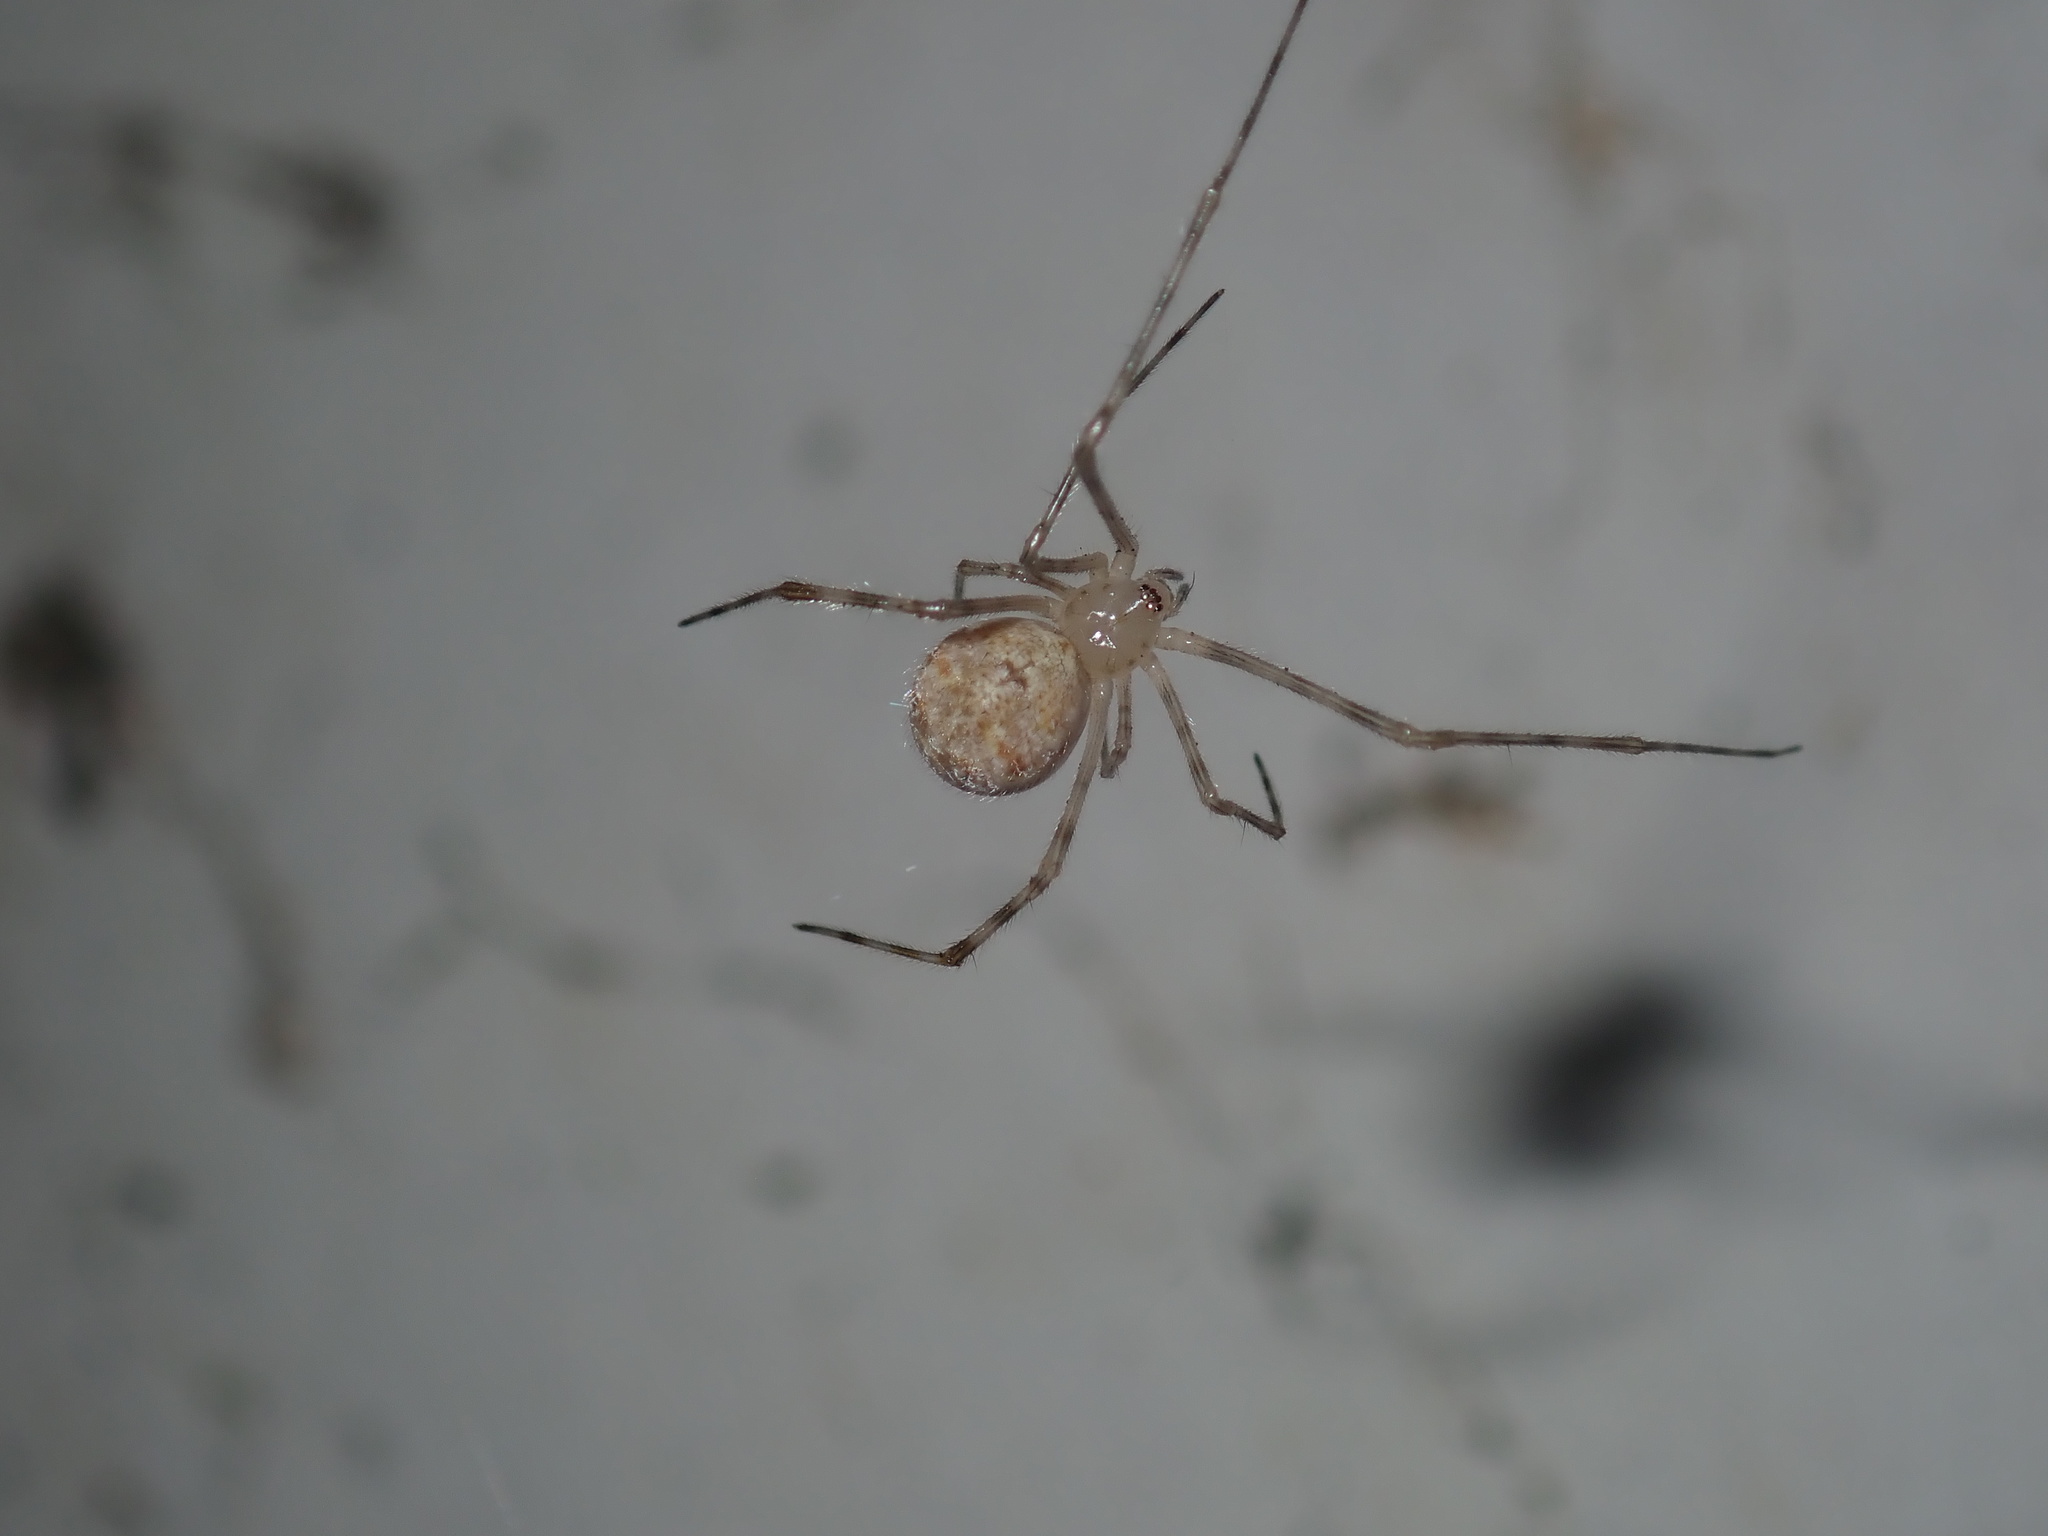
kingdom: Animalia
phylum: Arthropoda
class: Arachnida
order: Araneae
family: Theridiidae
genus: Cryptachaea
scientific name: Cryptachaea gigantipes
